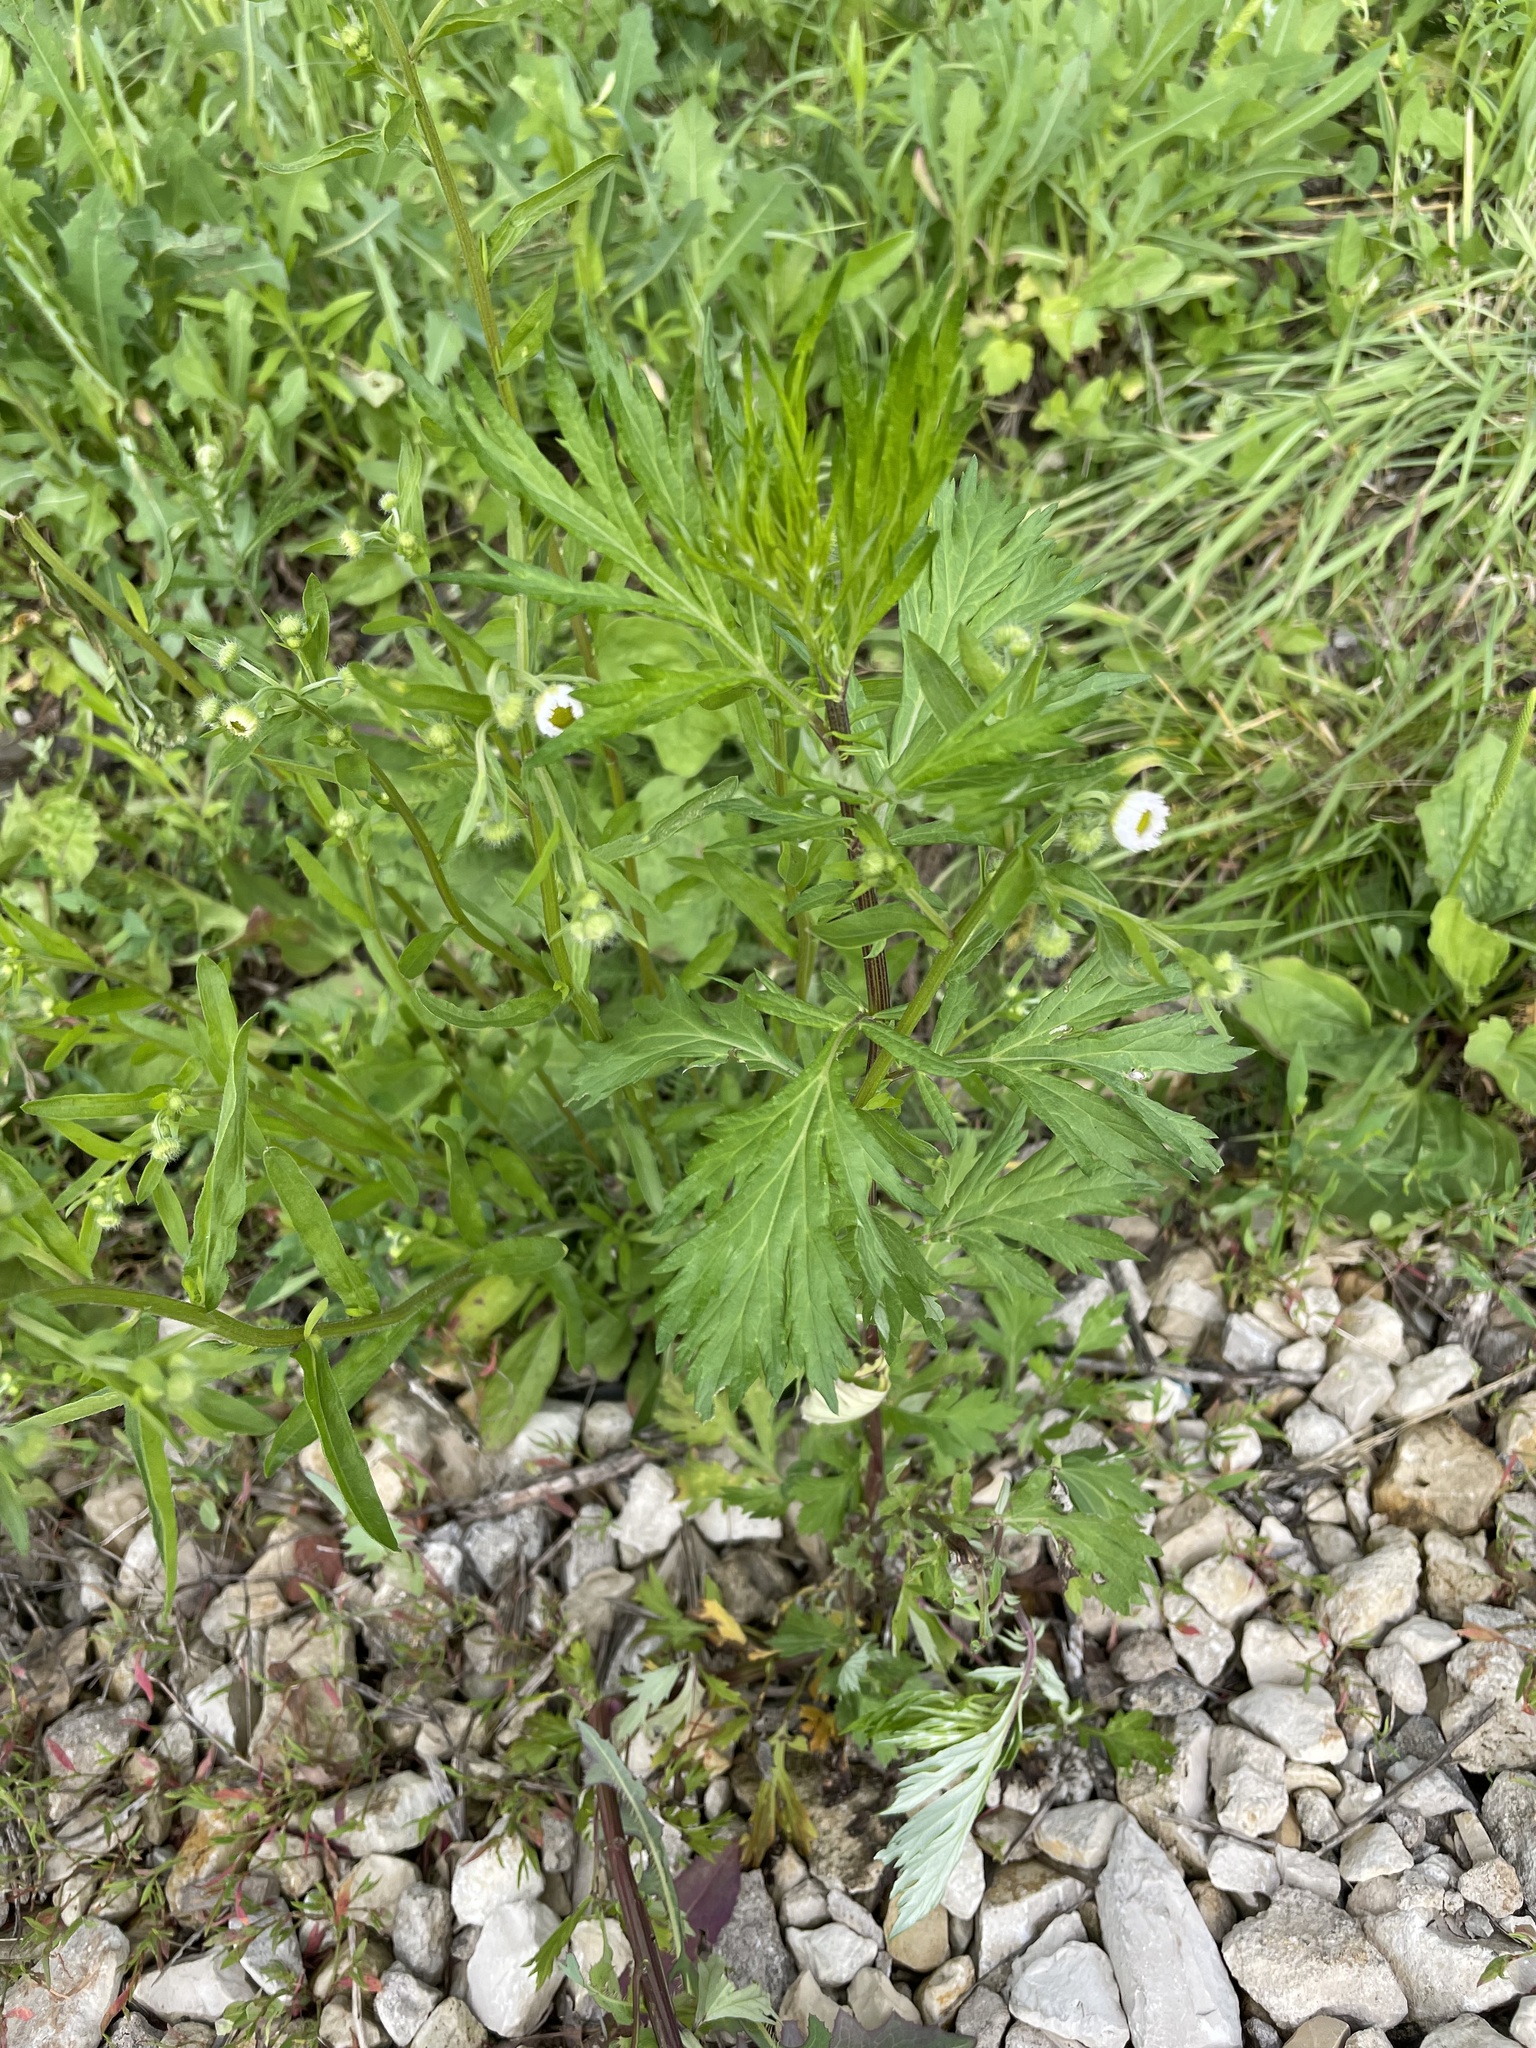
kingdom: Plantae
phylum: Tracheophyta
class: Magnoliopsida
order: Asterales
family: Asteraceae
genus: Artemisia
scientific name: Artemisia vulgaris
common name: Mugwort
